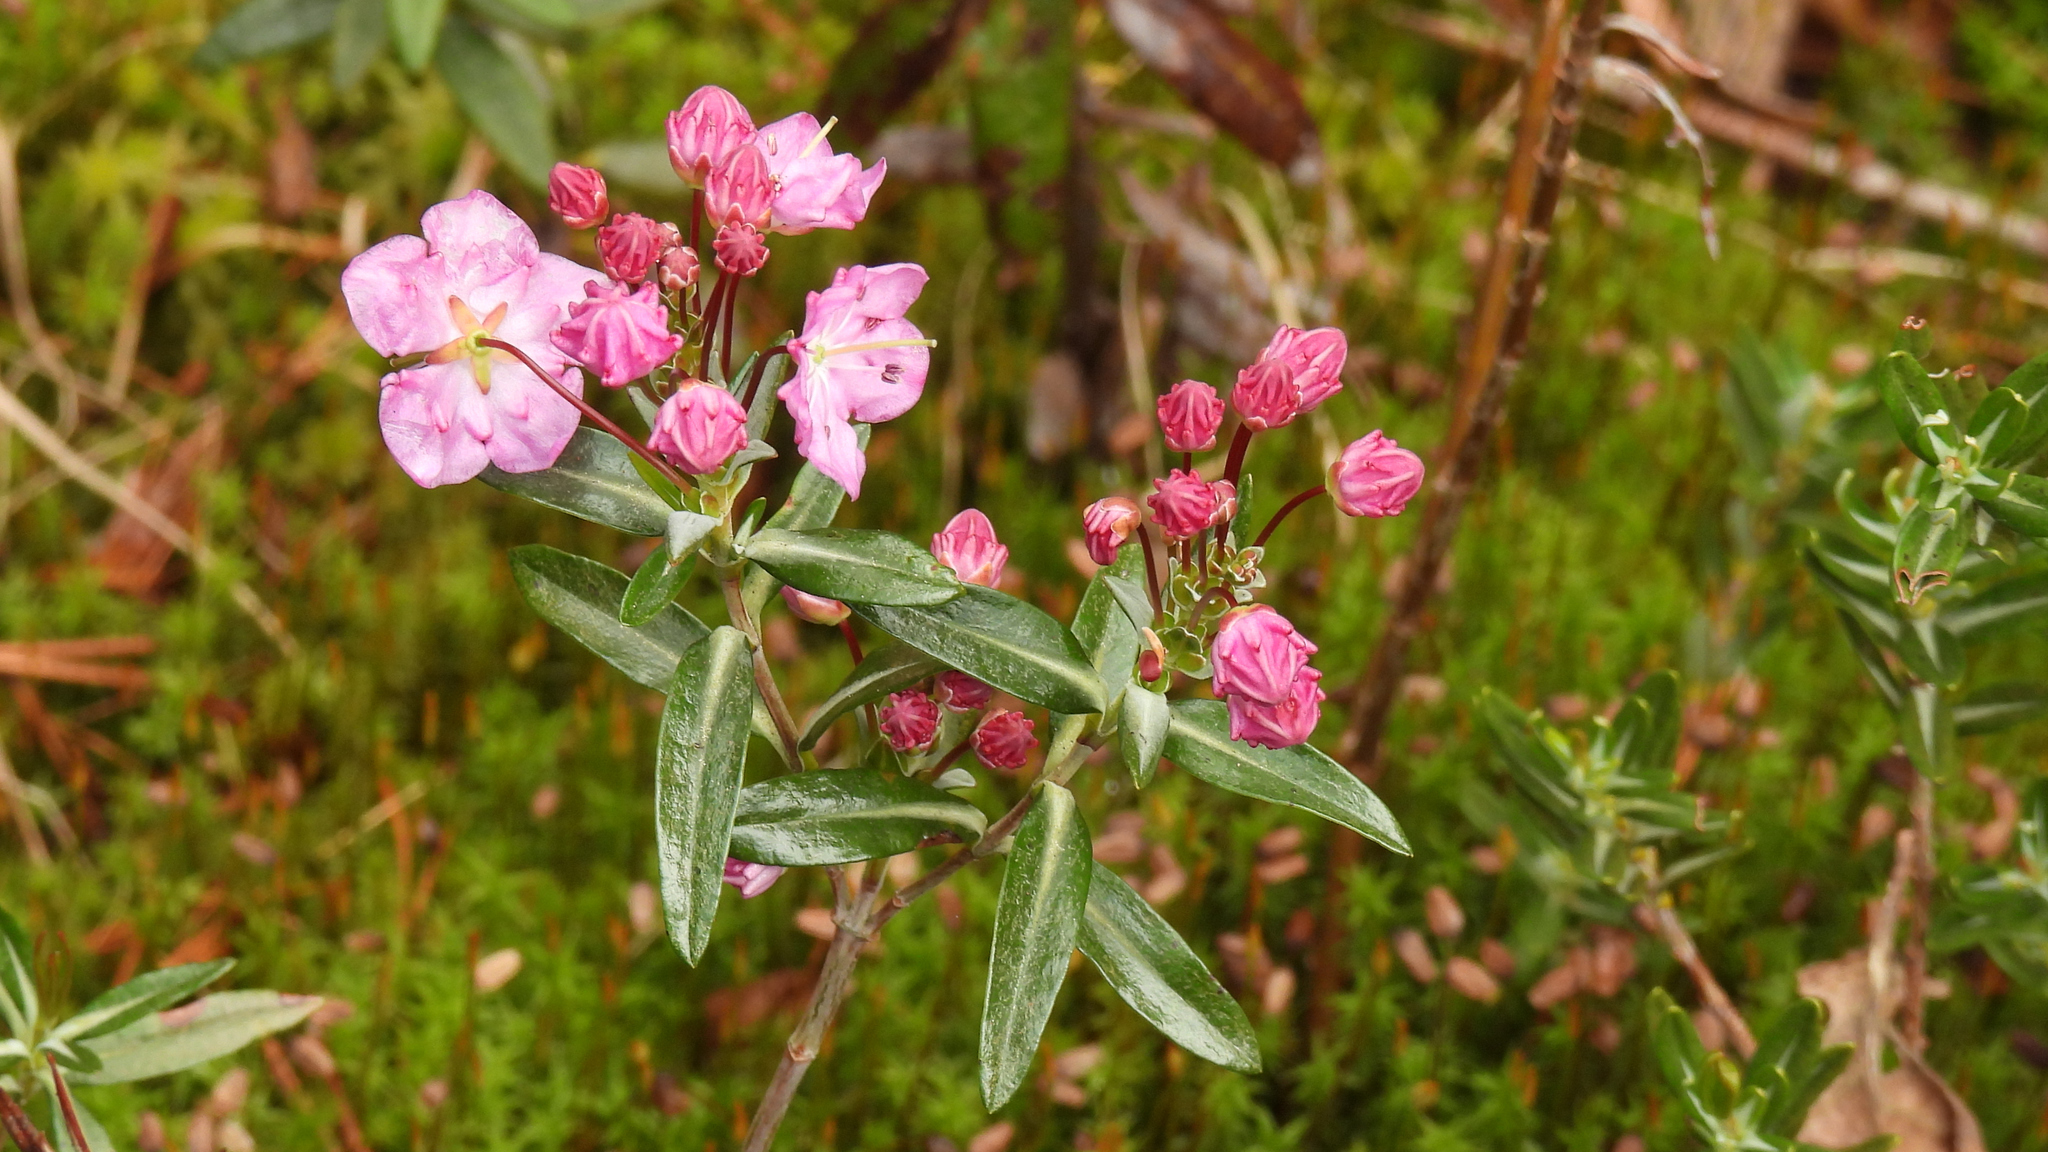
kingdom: Plantae
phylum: Tracheophyta
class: Magnoliopsida
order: Ericales
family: Ericaceae
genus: Kalmia
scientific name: Kalmia microphylla
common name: Alpine bog laurel
